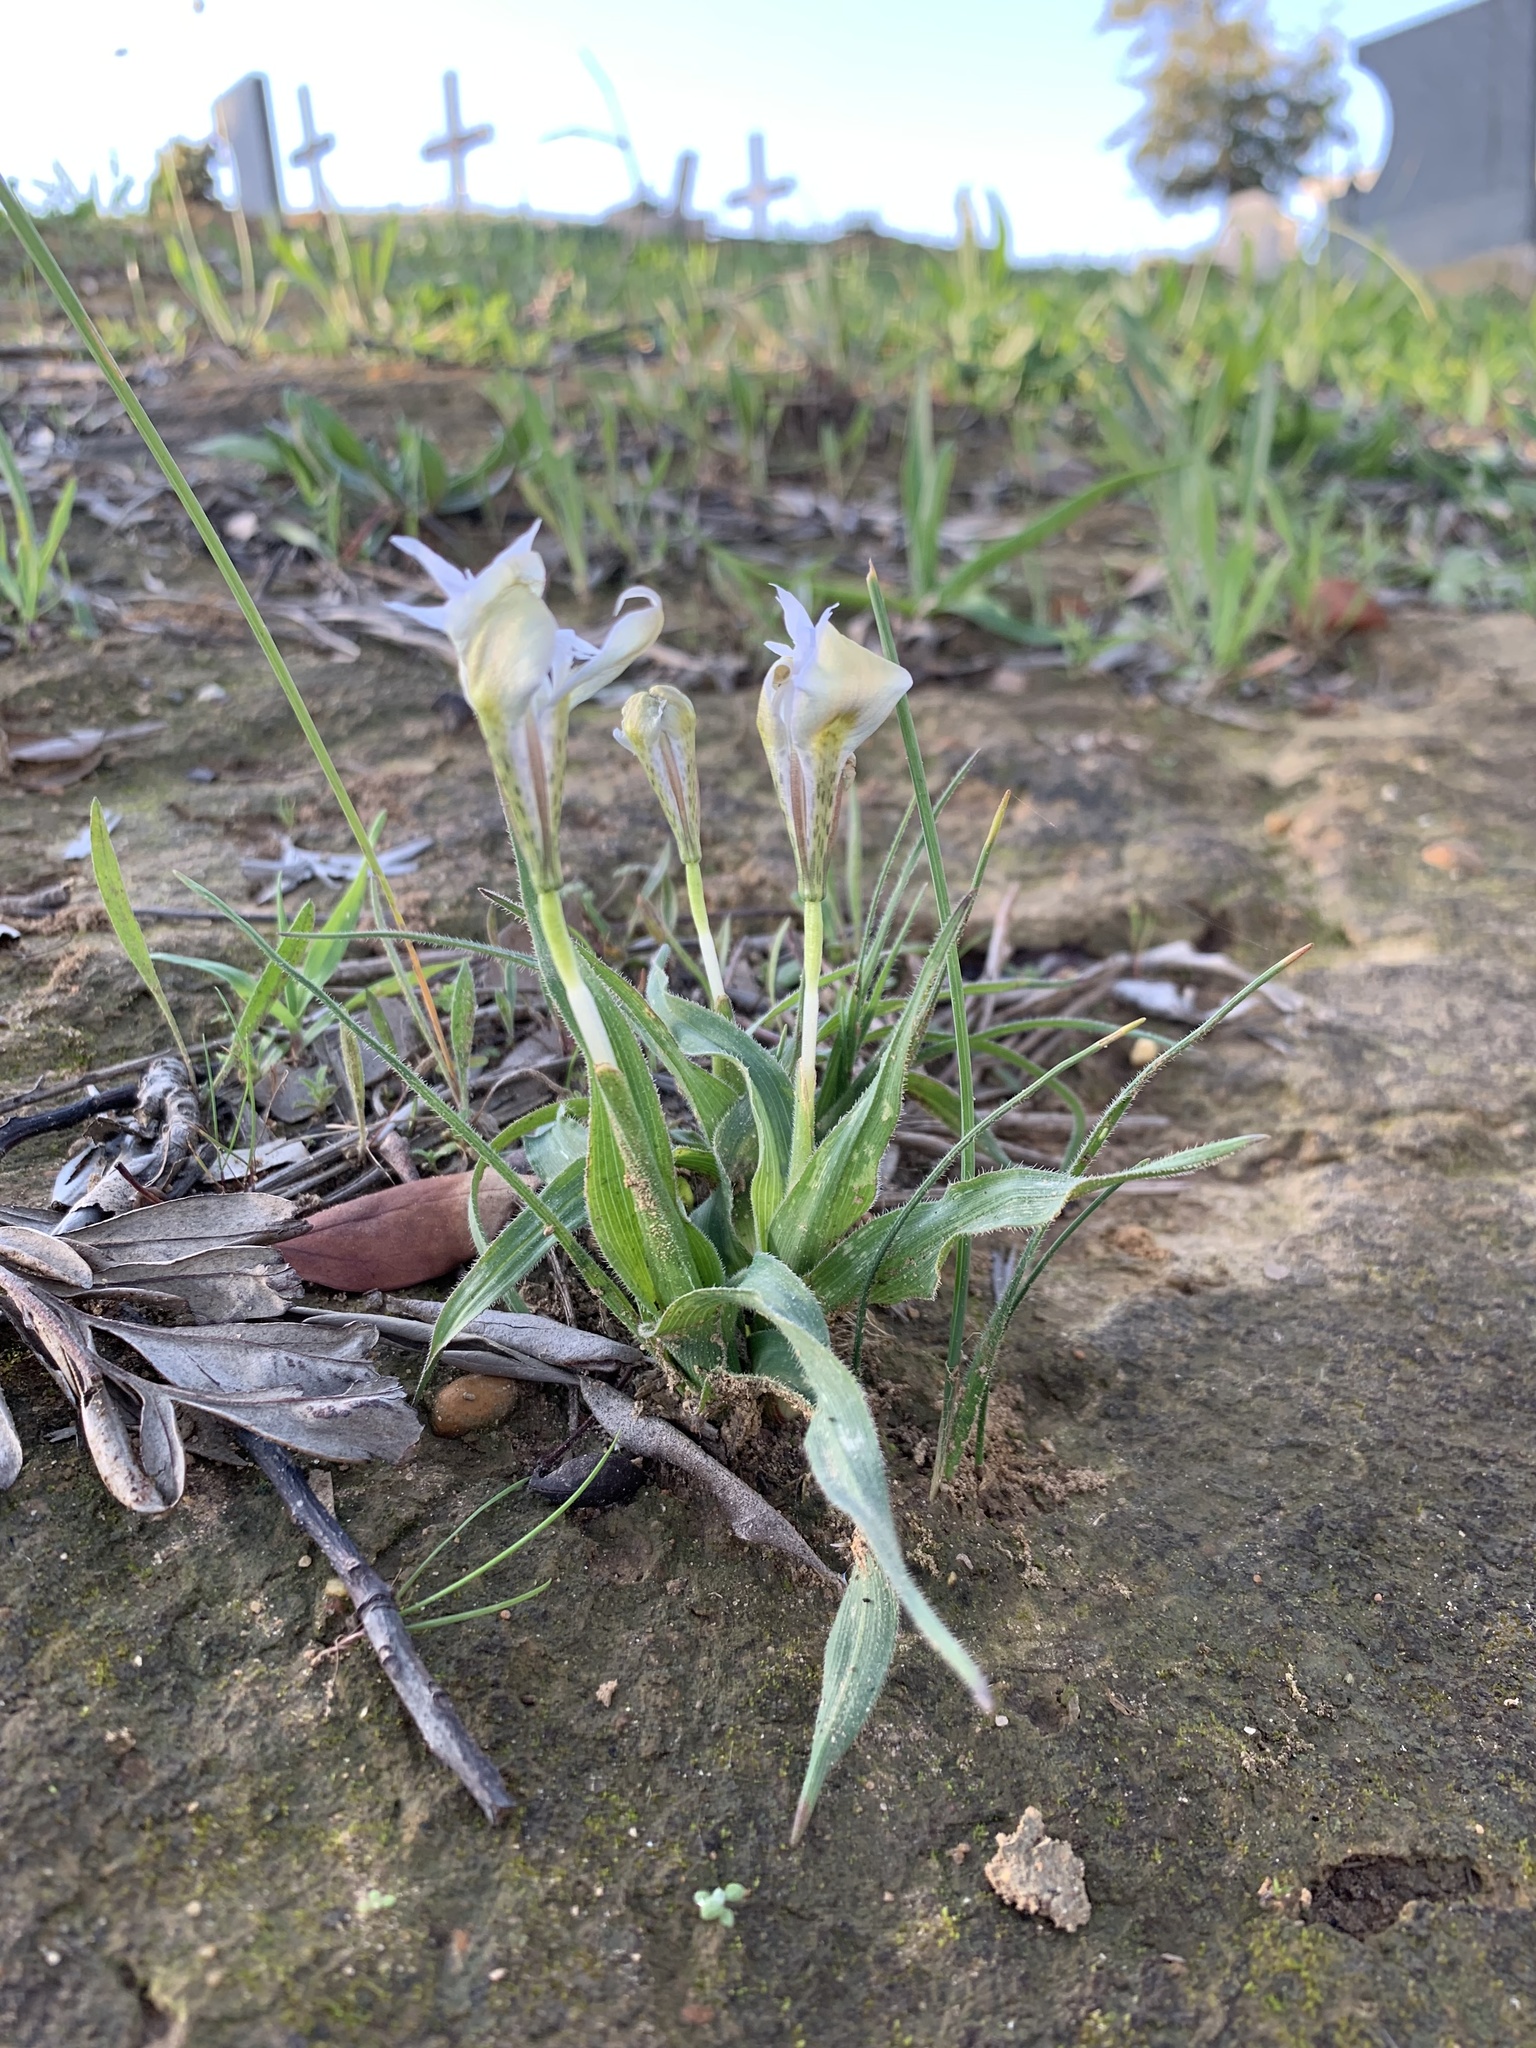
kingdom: Plantae
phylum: Tracheophyta
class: Liliopsida
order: Asparagales
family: Iridaceae
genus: Moraea
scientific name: Moraea ciliata
